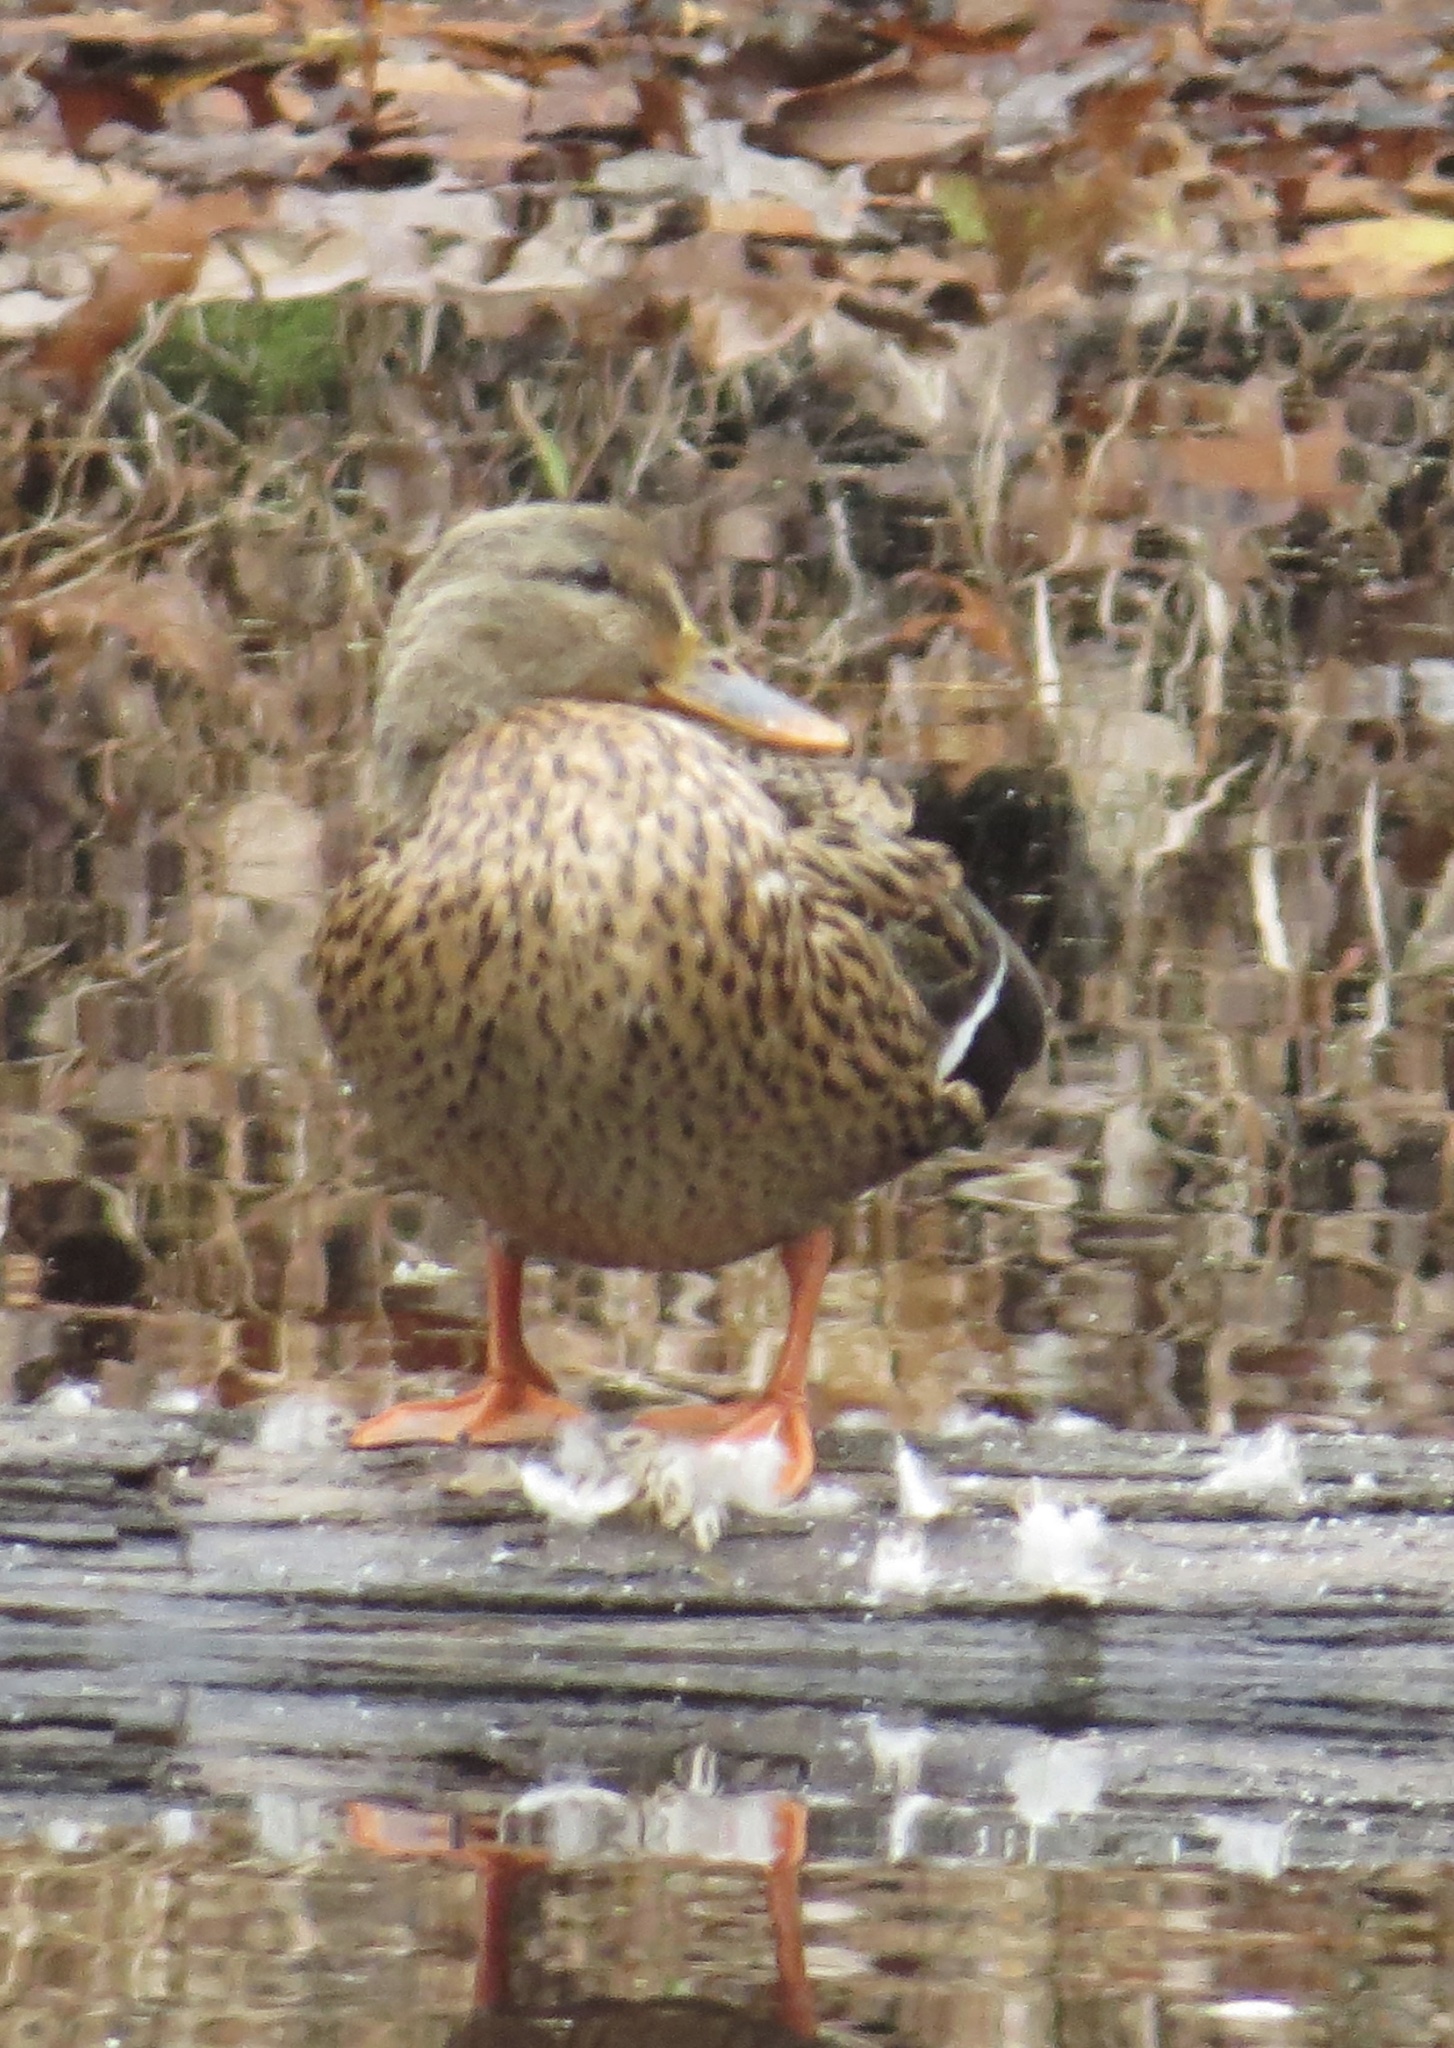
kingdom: Animalia
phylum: Chordata
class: Aves
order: Anseriformes
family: Anatidae
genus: Anas
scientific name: Anas platyrhynchos
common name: Mallard
